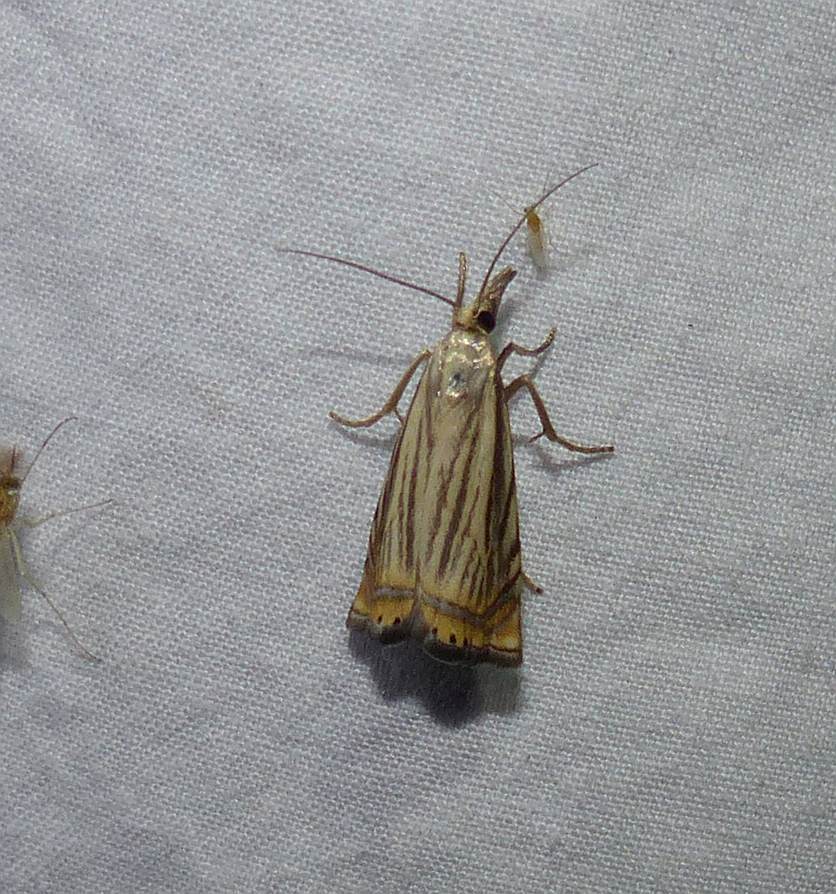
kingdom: Animalia
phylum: Arthropoda
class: Insecta
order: Lepidoptera
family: Crambidae
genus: Chrysoteuchia
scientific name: Chrysoteuchia topiarius
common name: Topiary grass-veneer
